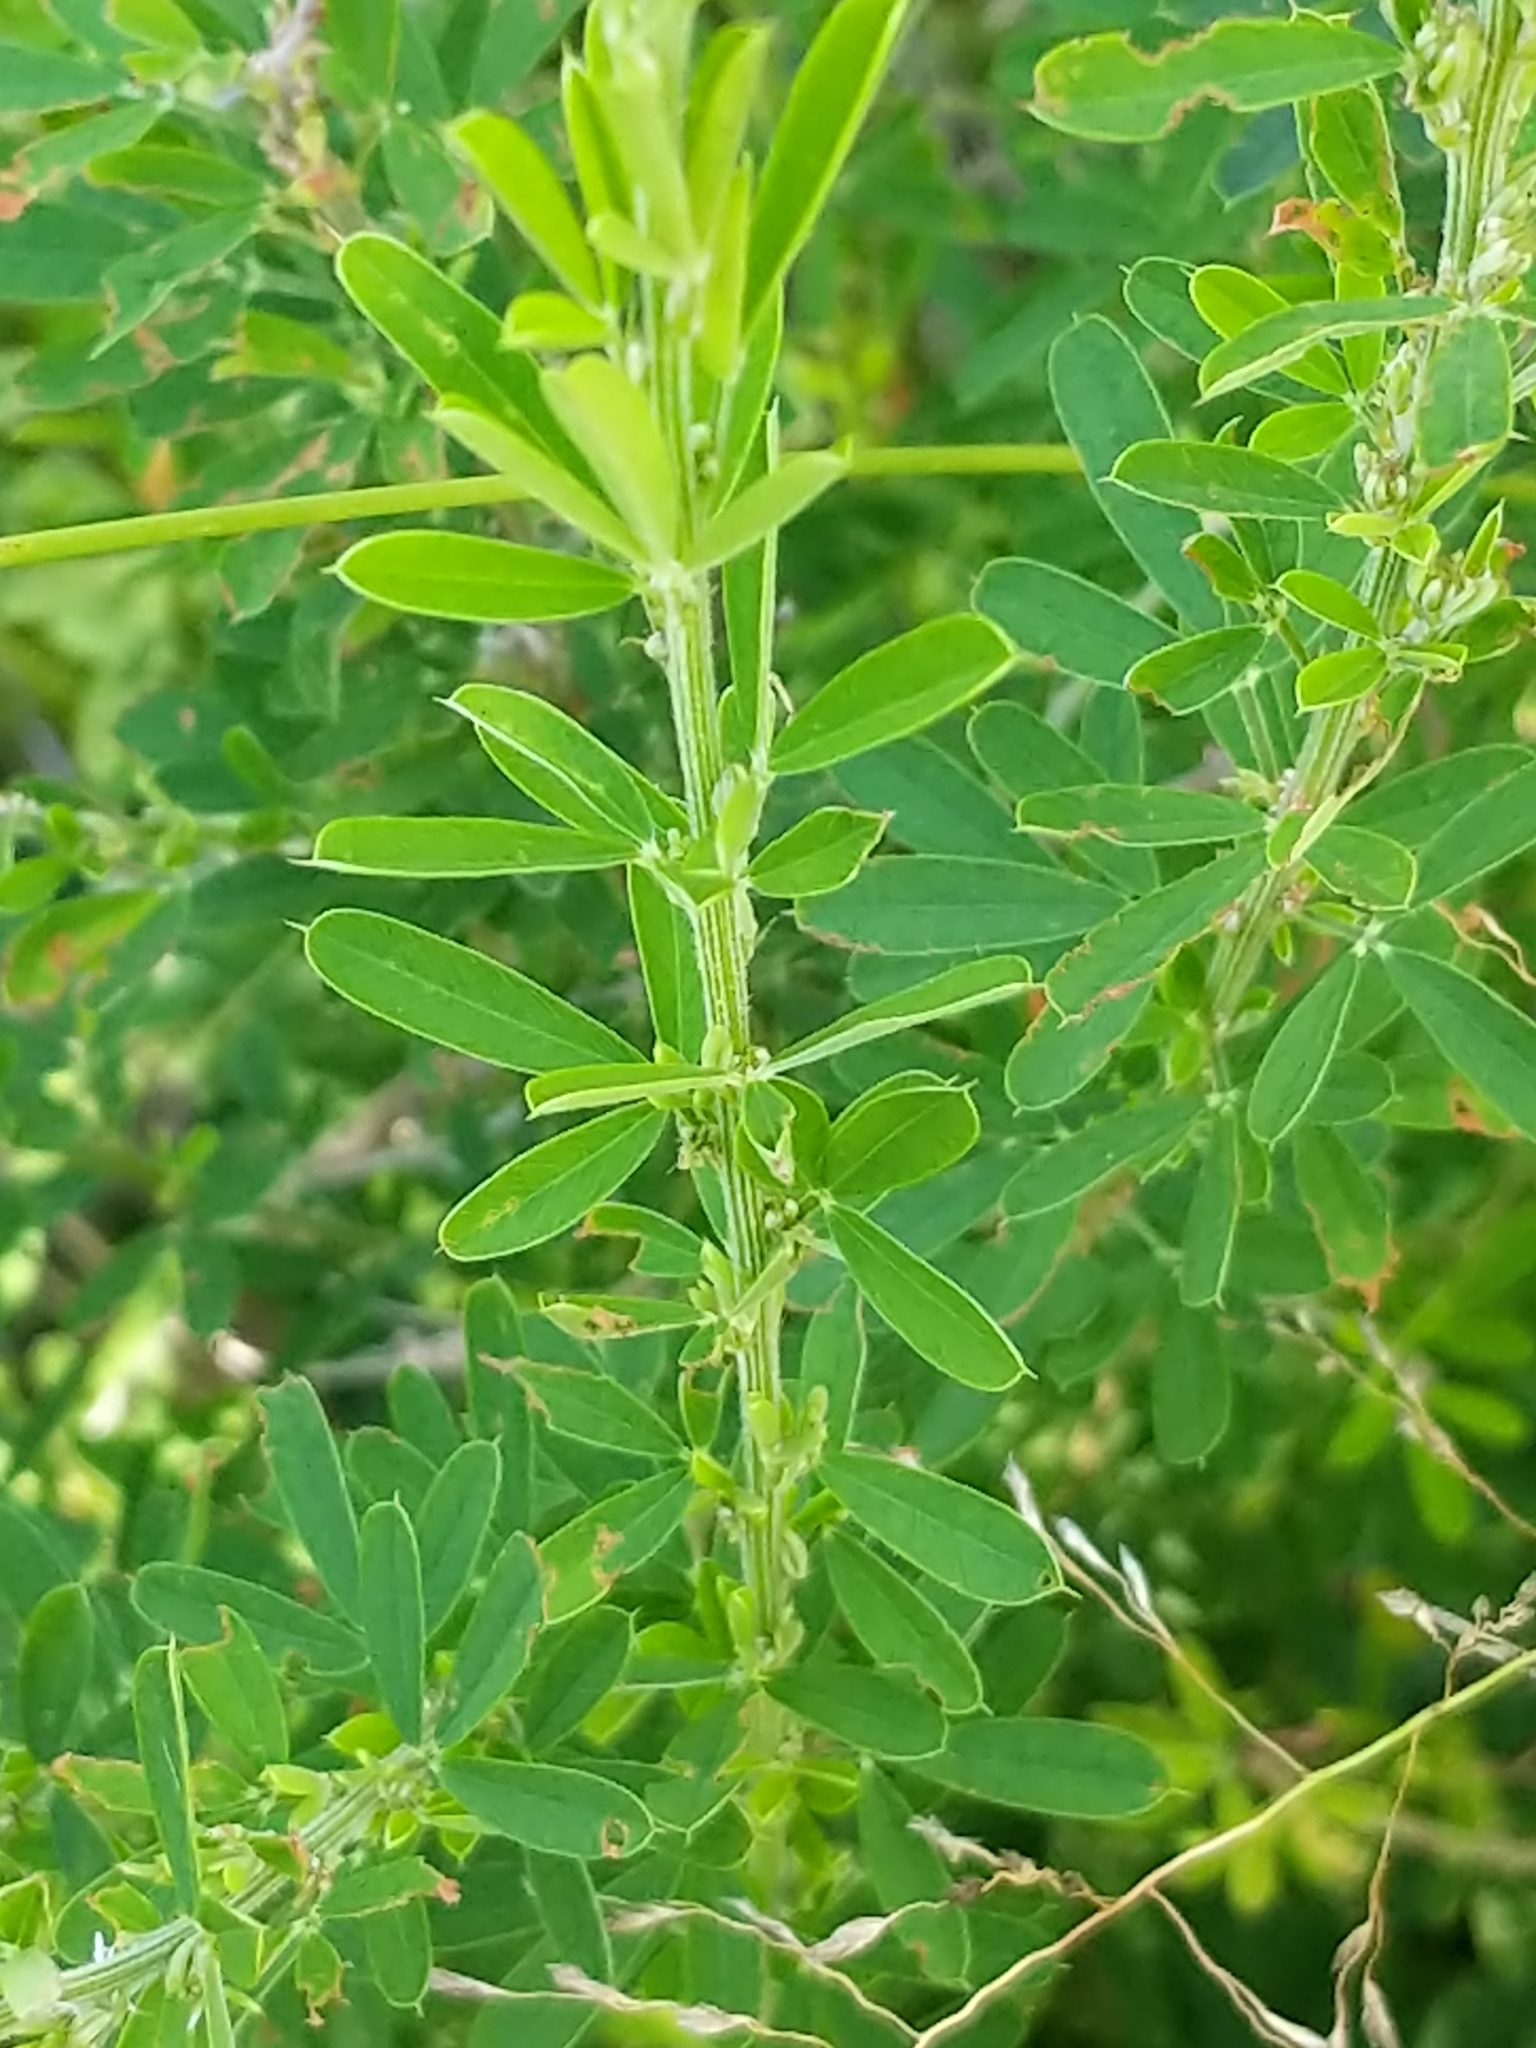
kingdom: Plantae
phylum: Tracheophyta
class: Magnoliopsida
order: Fabales
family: Fabaceae
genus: Lespedeza
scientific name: Lespedeza cuneata
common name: Chinese bush-clover
